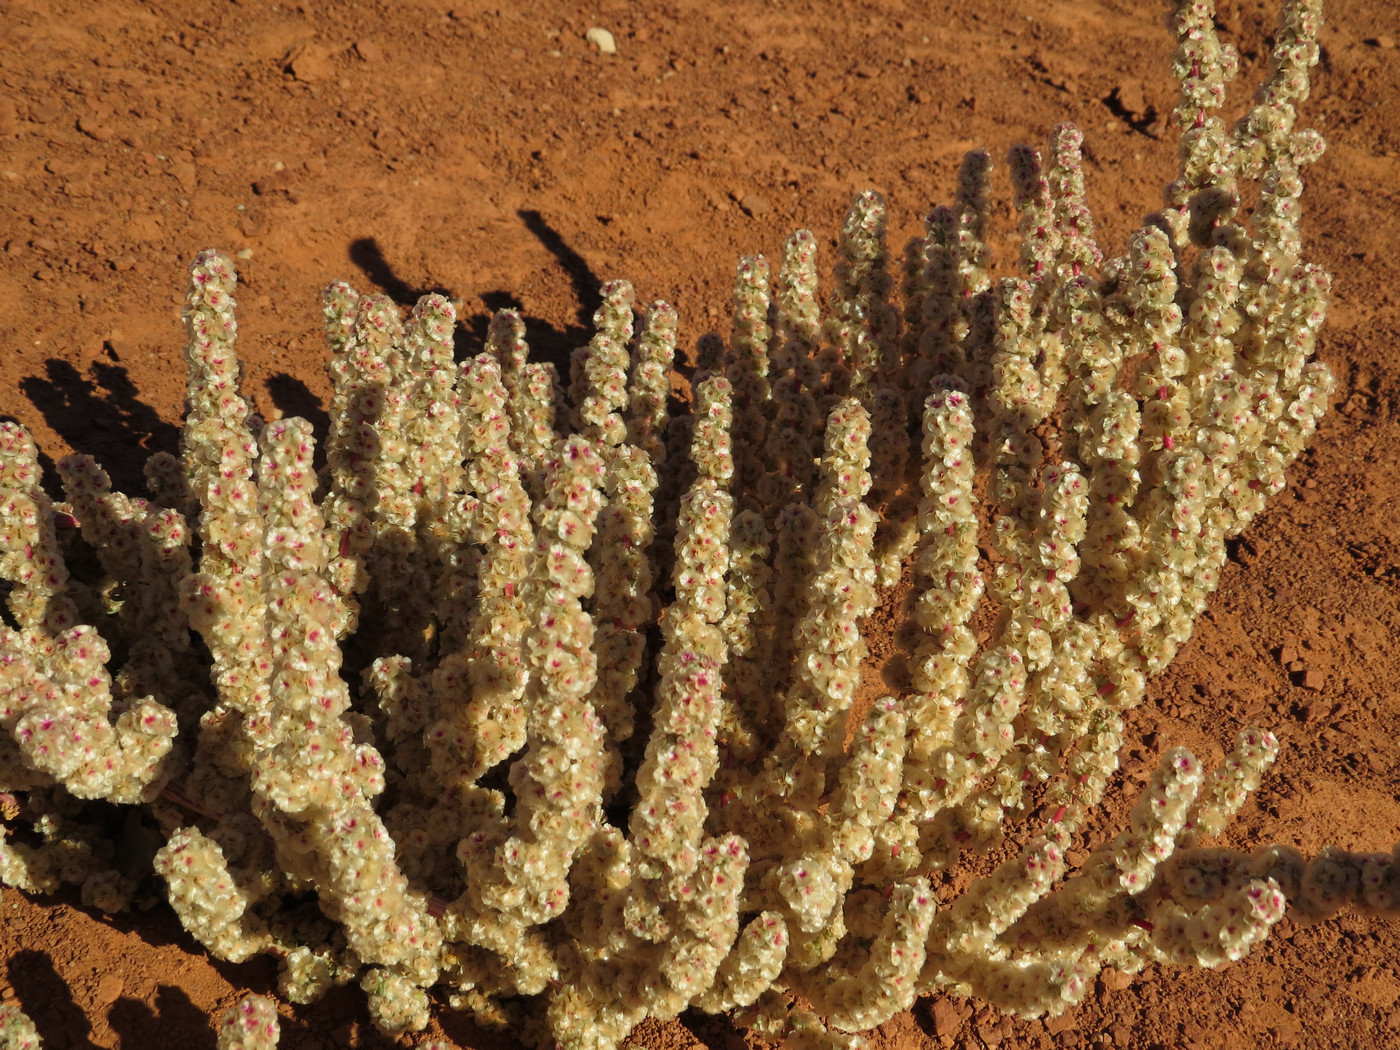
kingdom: Plantae
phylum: Tracheophyta
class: Magnoliopsida
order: Caryophyllales
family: Amaranthaceae
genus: Halogeton
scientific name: Halogeton glomeratus
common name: Saltlover
